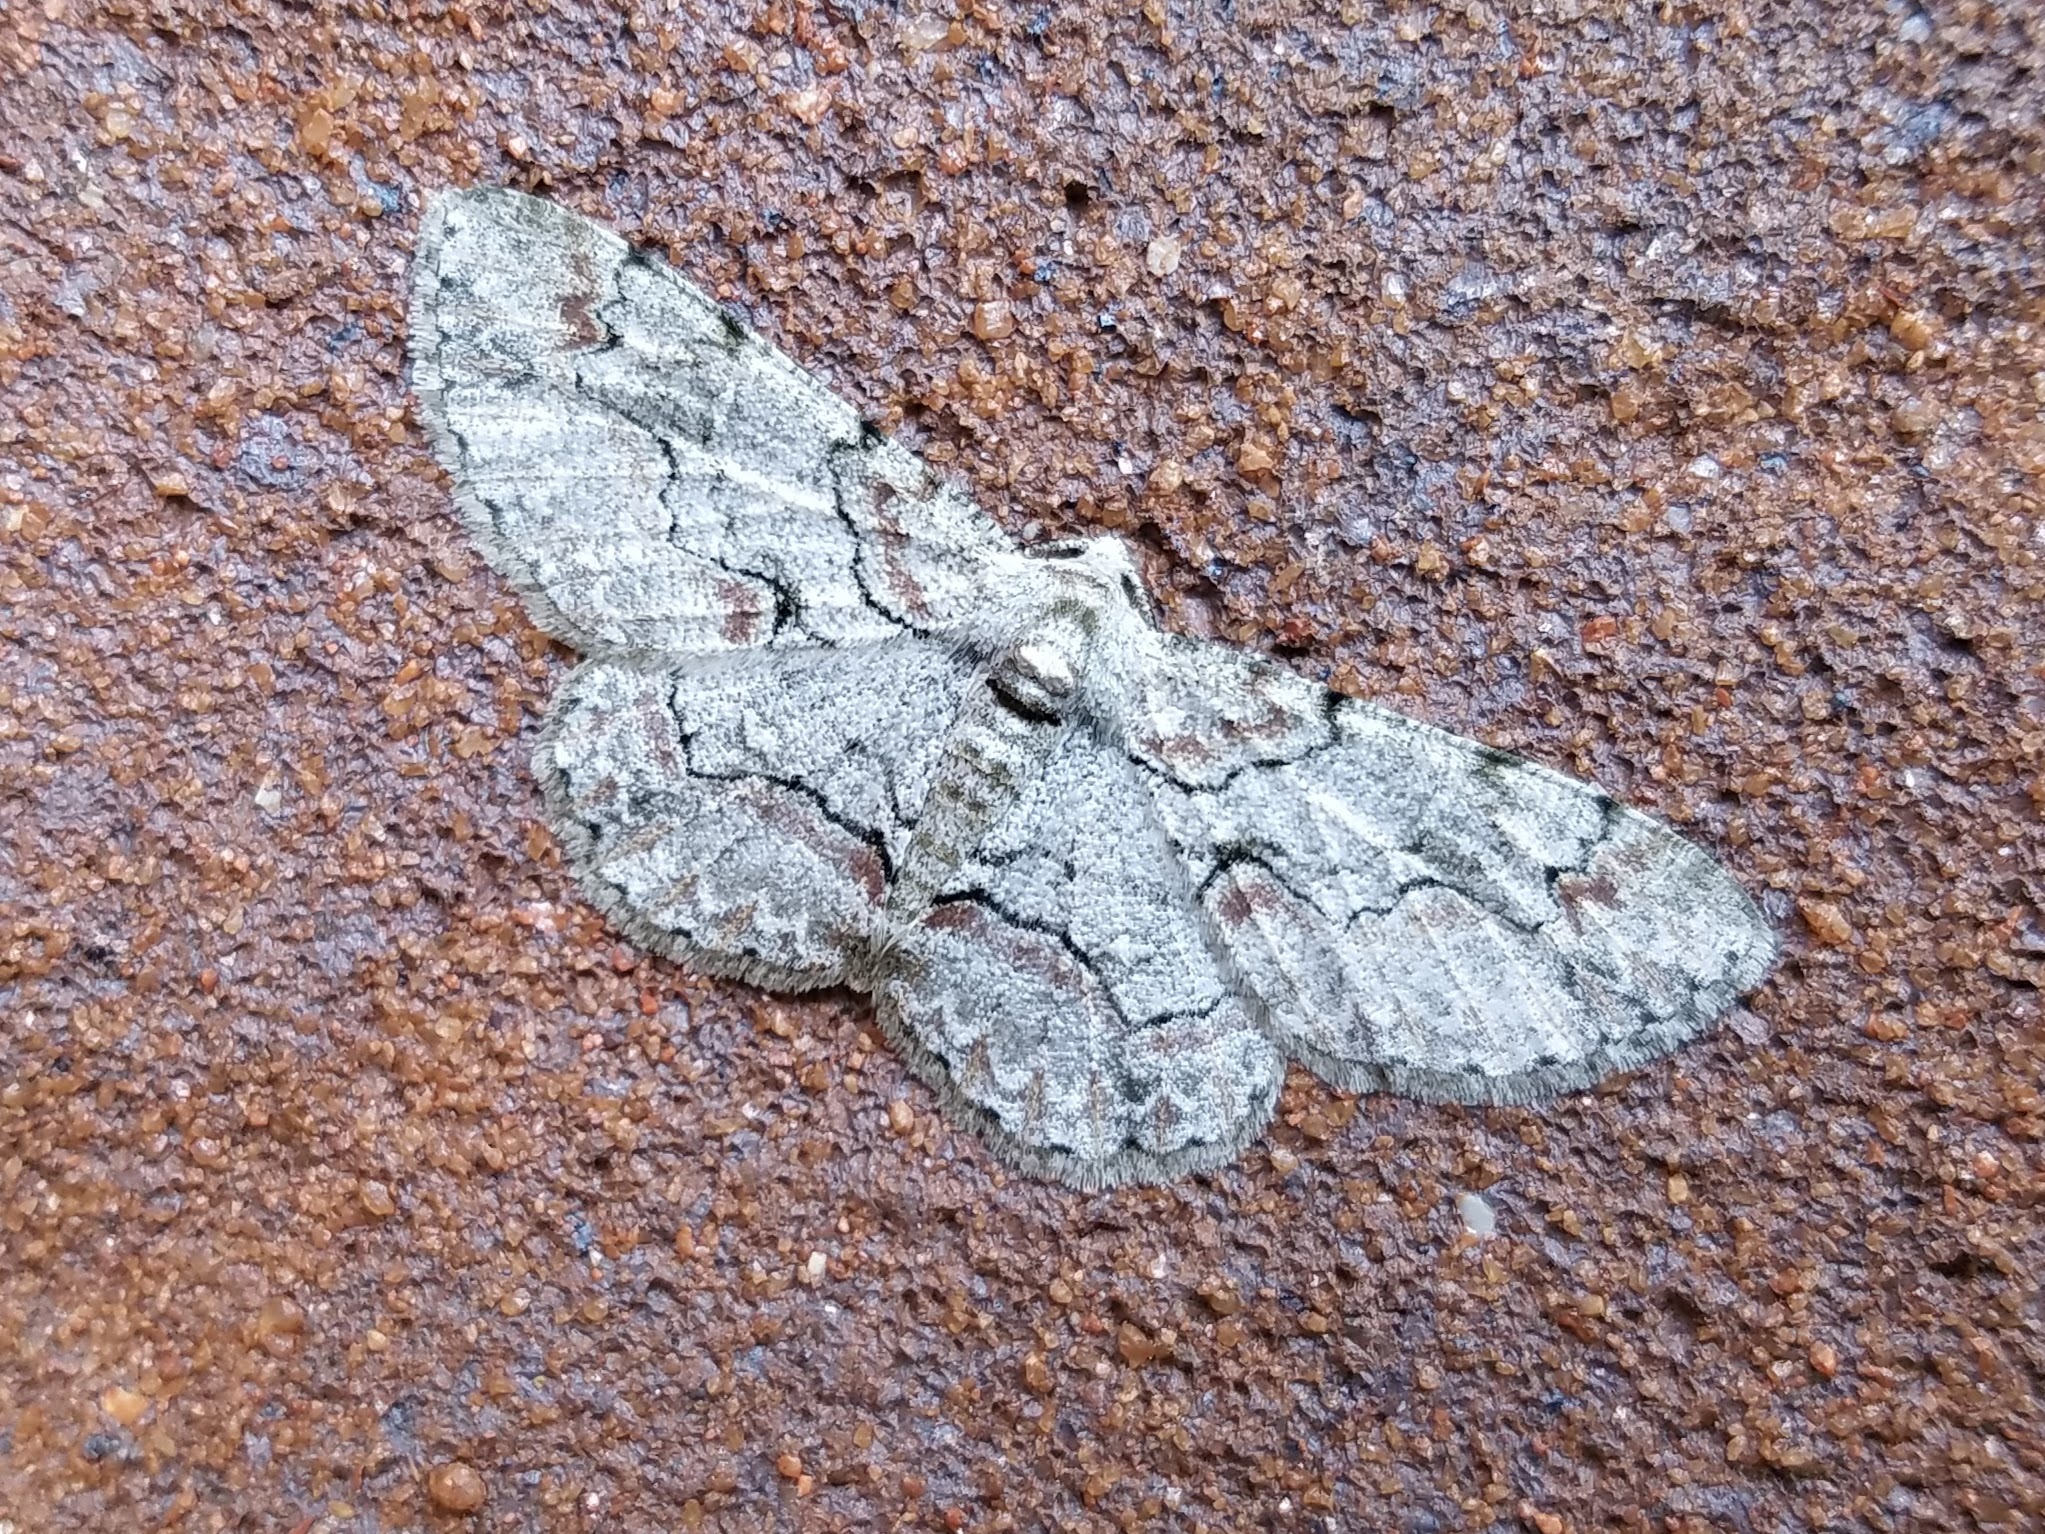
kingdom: Animalia
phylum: Arthropoda
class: Insecta
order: Lepidoptera
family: Geometridae
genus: Iridopsis
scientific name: Iridopsis defectaria
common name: Brown-shaded gray
